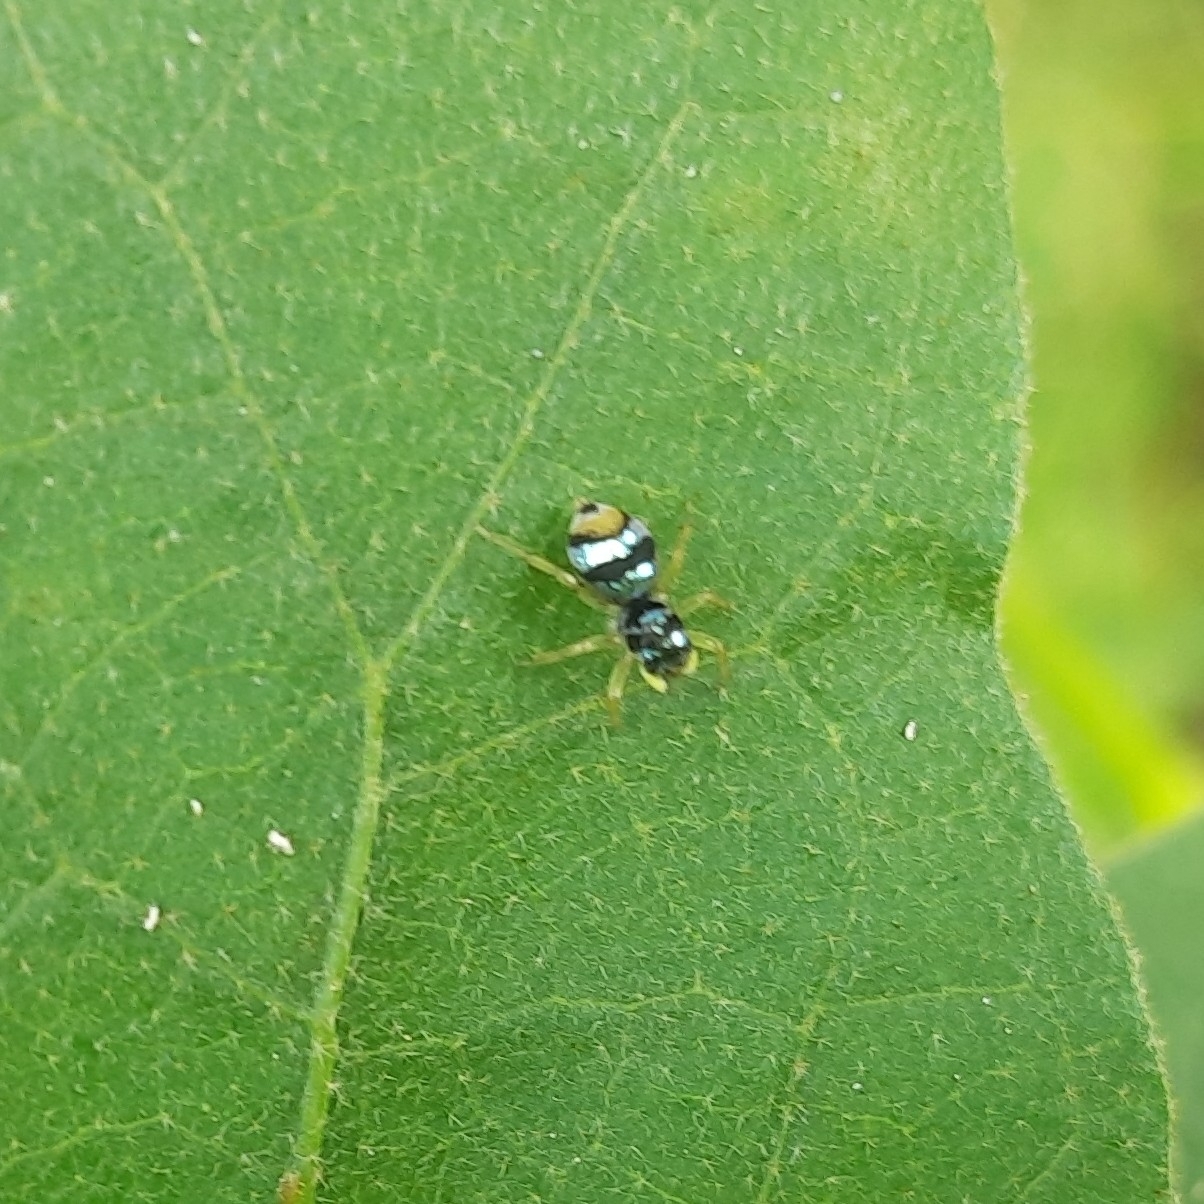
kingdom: Animalia
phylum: Arthropoda
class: Arachnida
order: Araneae
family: Salticidae
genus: Phintella
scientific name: Phintella vittata
